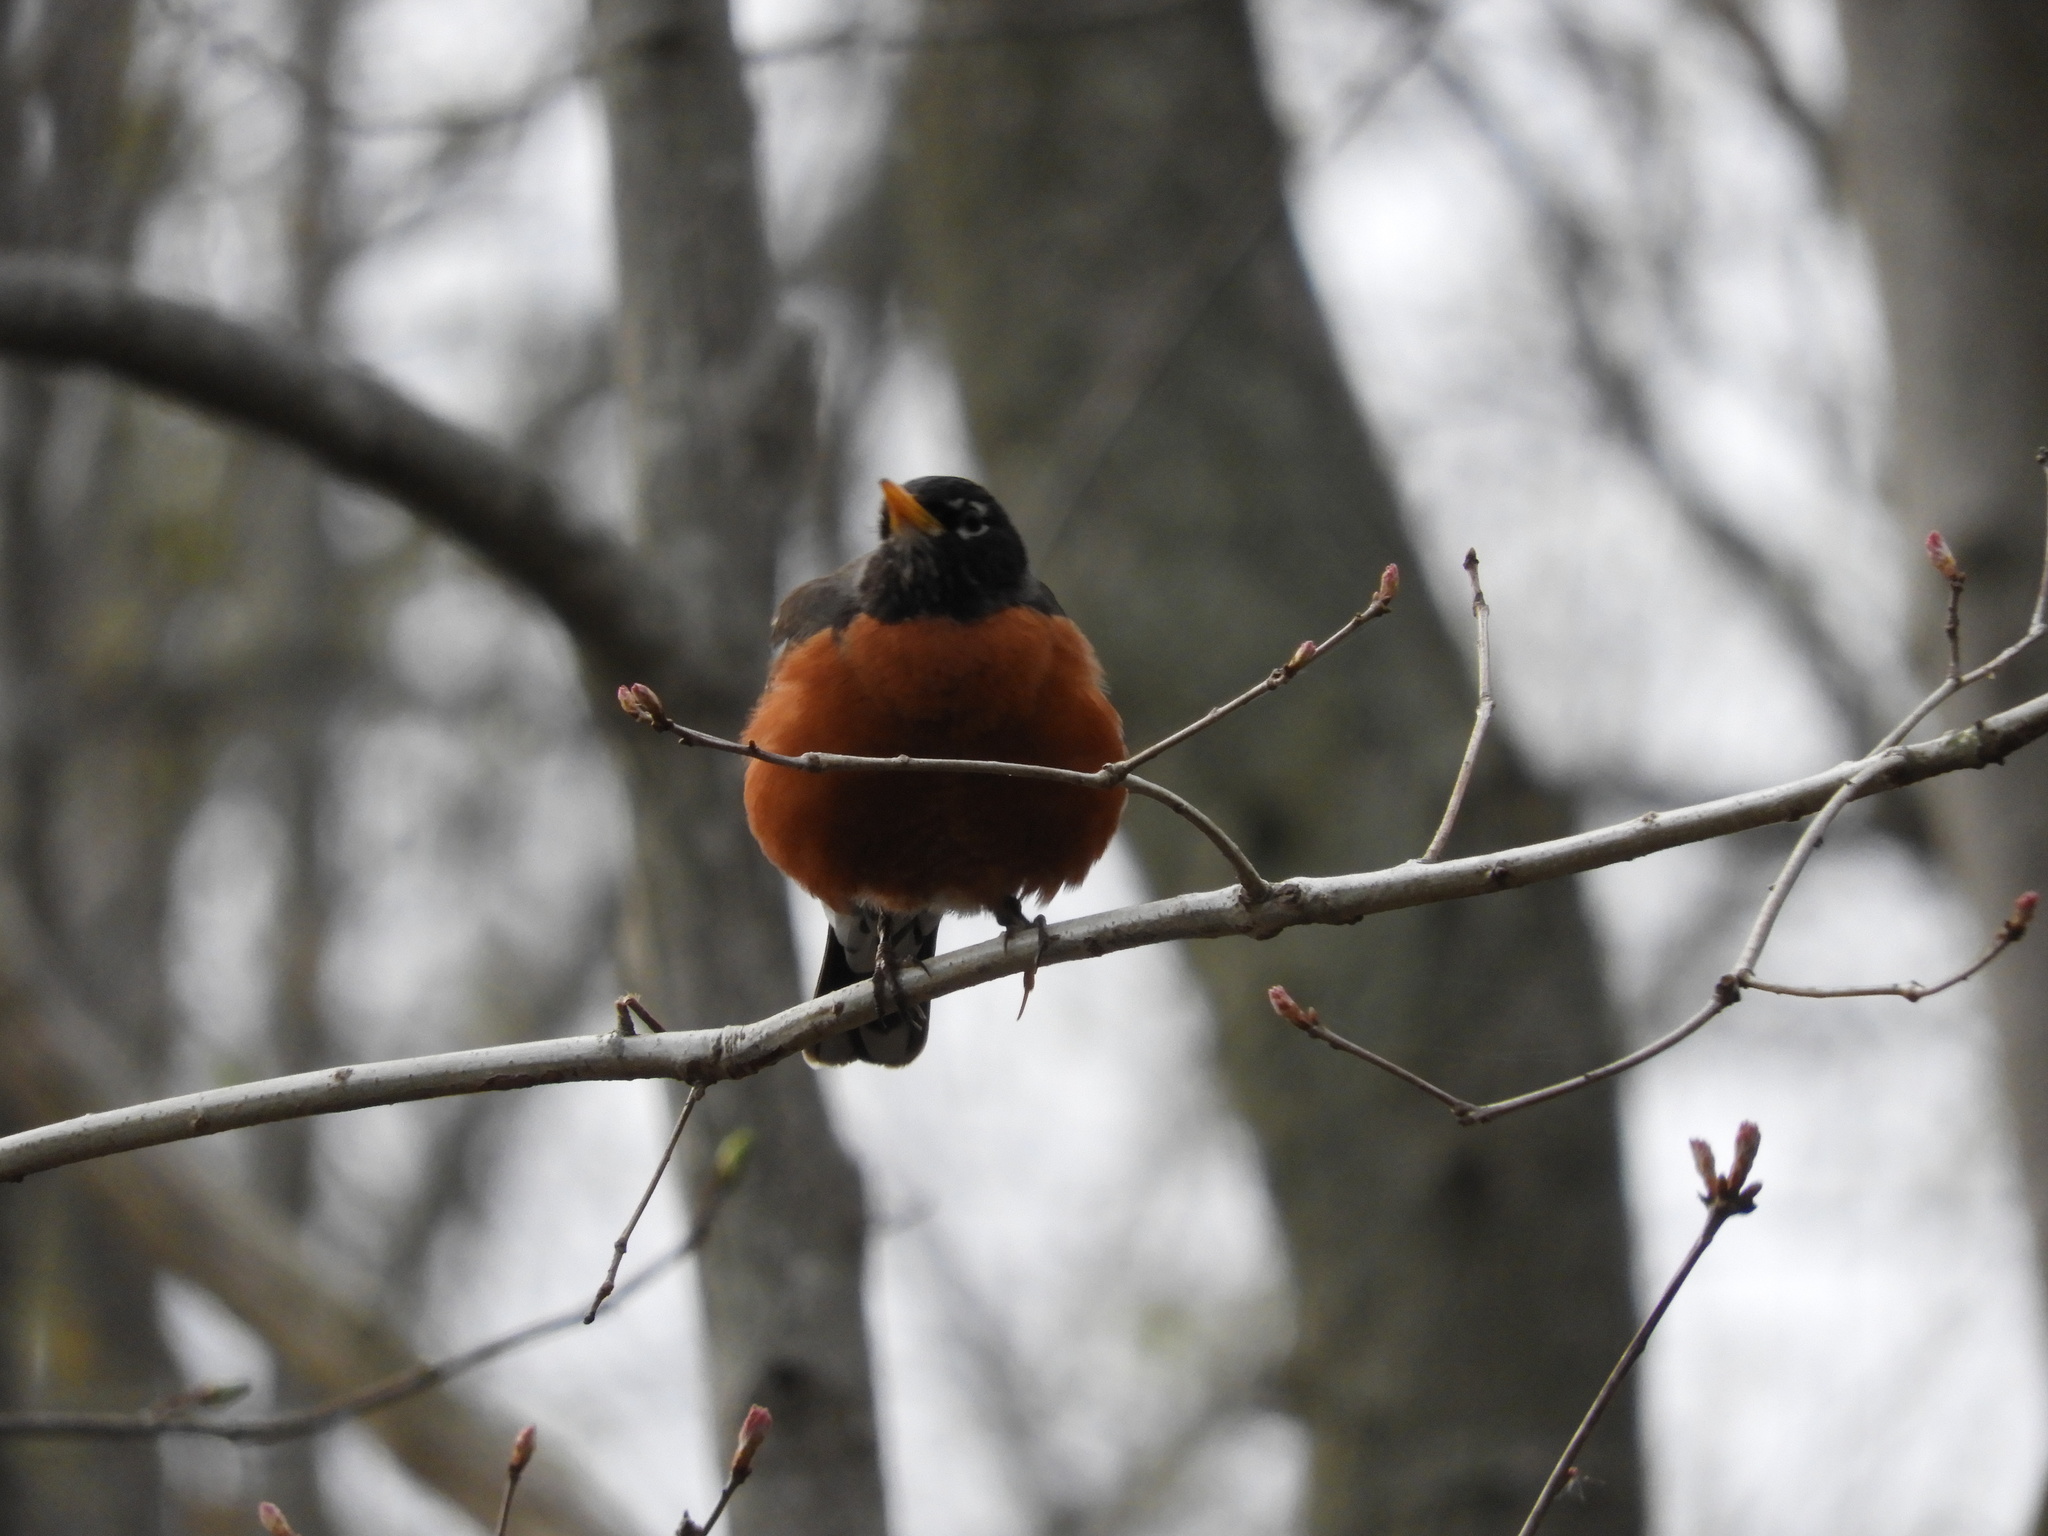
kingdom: Animalia
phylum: Chordata
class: Aves
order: Passeriformes
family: Turdidae
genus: Turdus
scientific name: Turdus migratorius
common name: American robin
